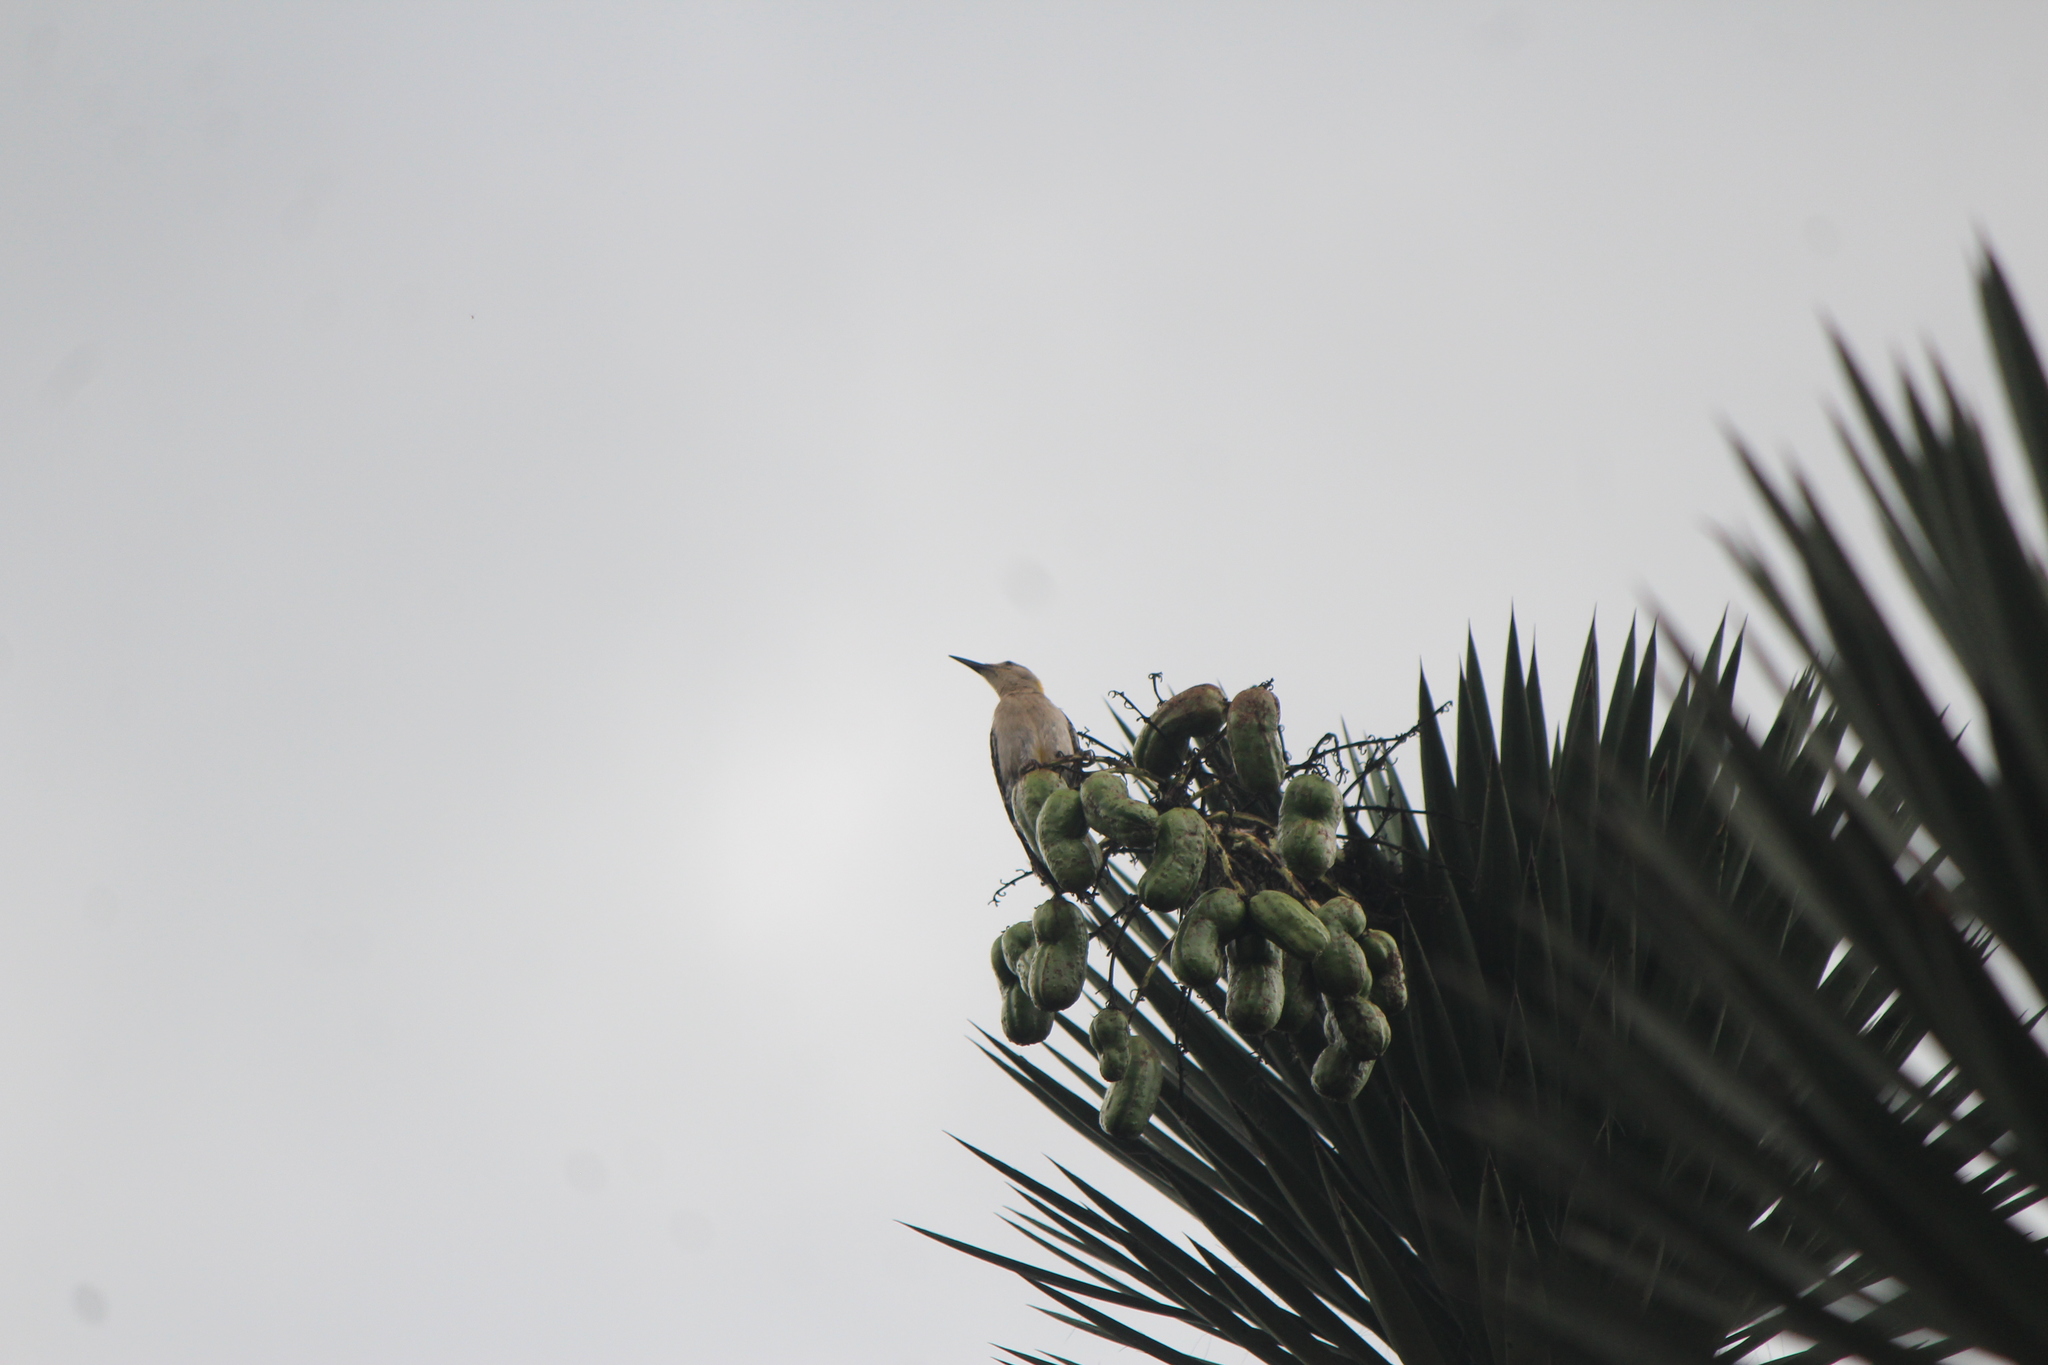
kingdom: Animalia
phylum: Chordata
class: Aves
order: Piciformes
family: Picidae
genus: Melanerpes
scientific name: Melanerpes aurifrons
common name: Golden-fronted woodpecker
